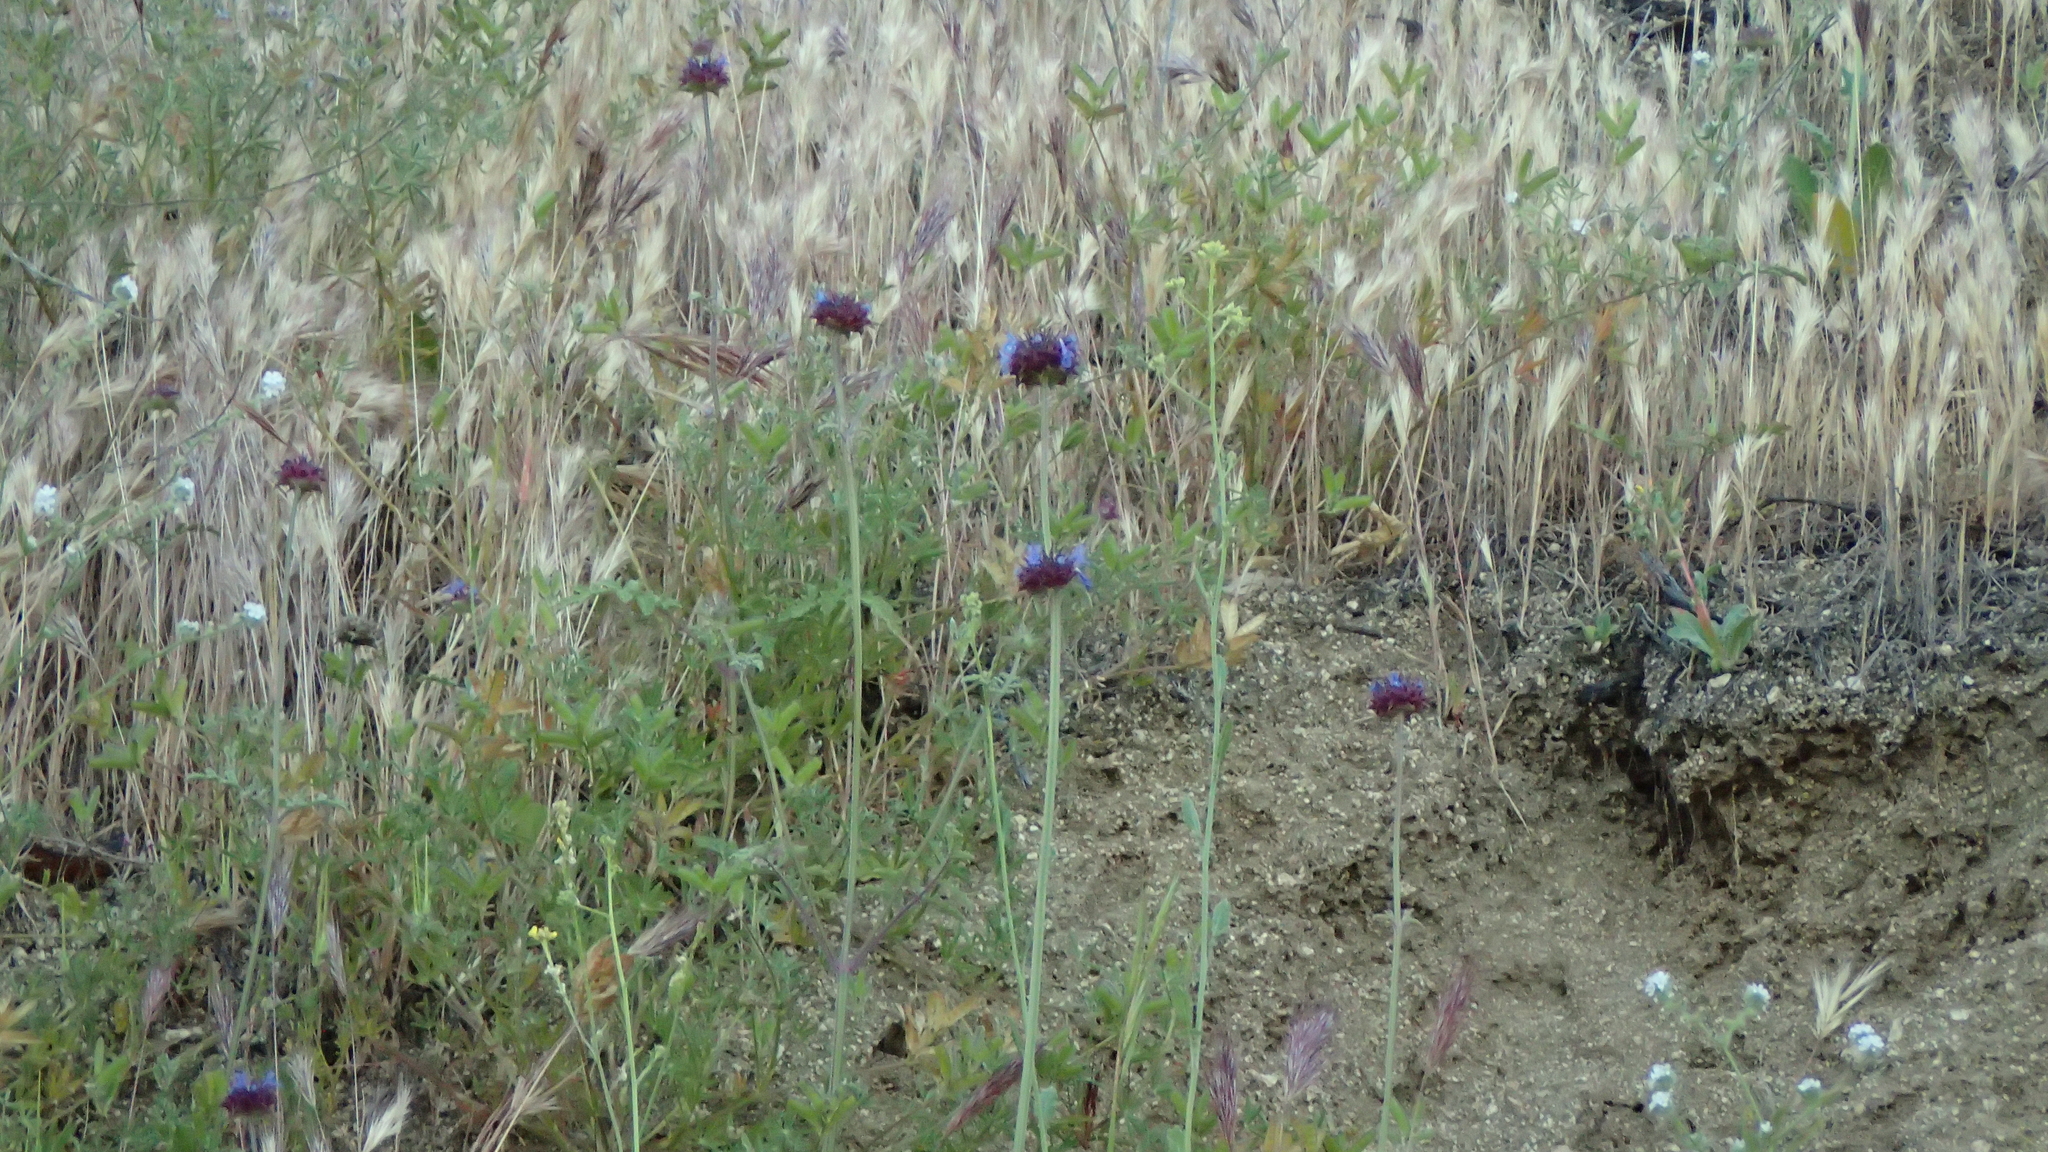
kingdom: Plantae
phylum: Tracheophyta
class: Magnoliopsida
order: Lamiales
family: Lamiaceae
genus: Salvia
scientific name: Salvia columbariae
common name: Chia
